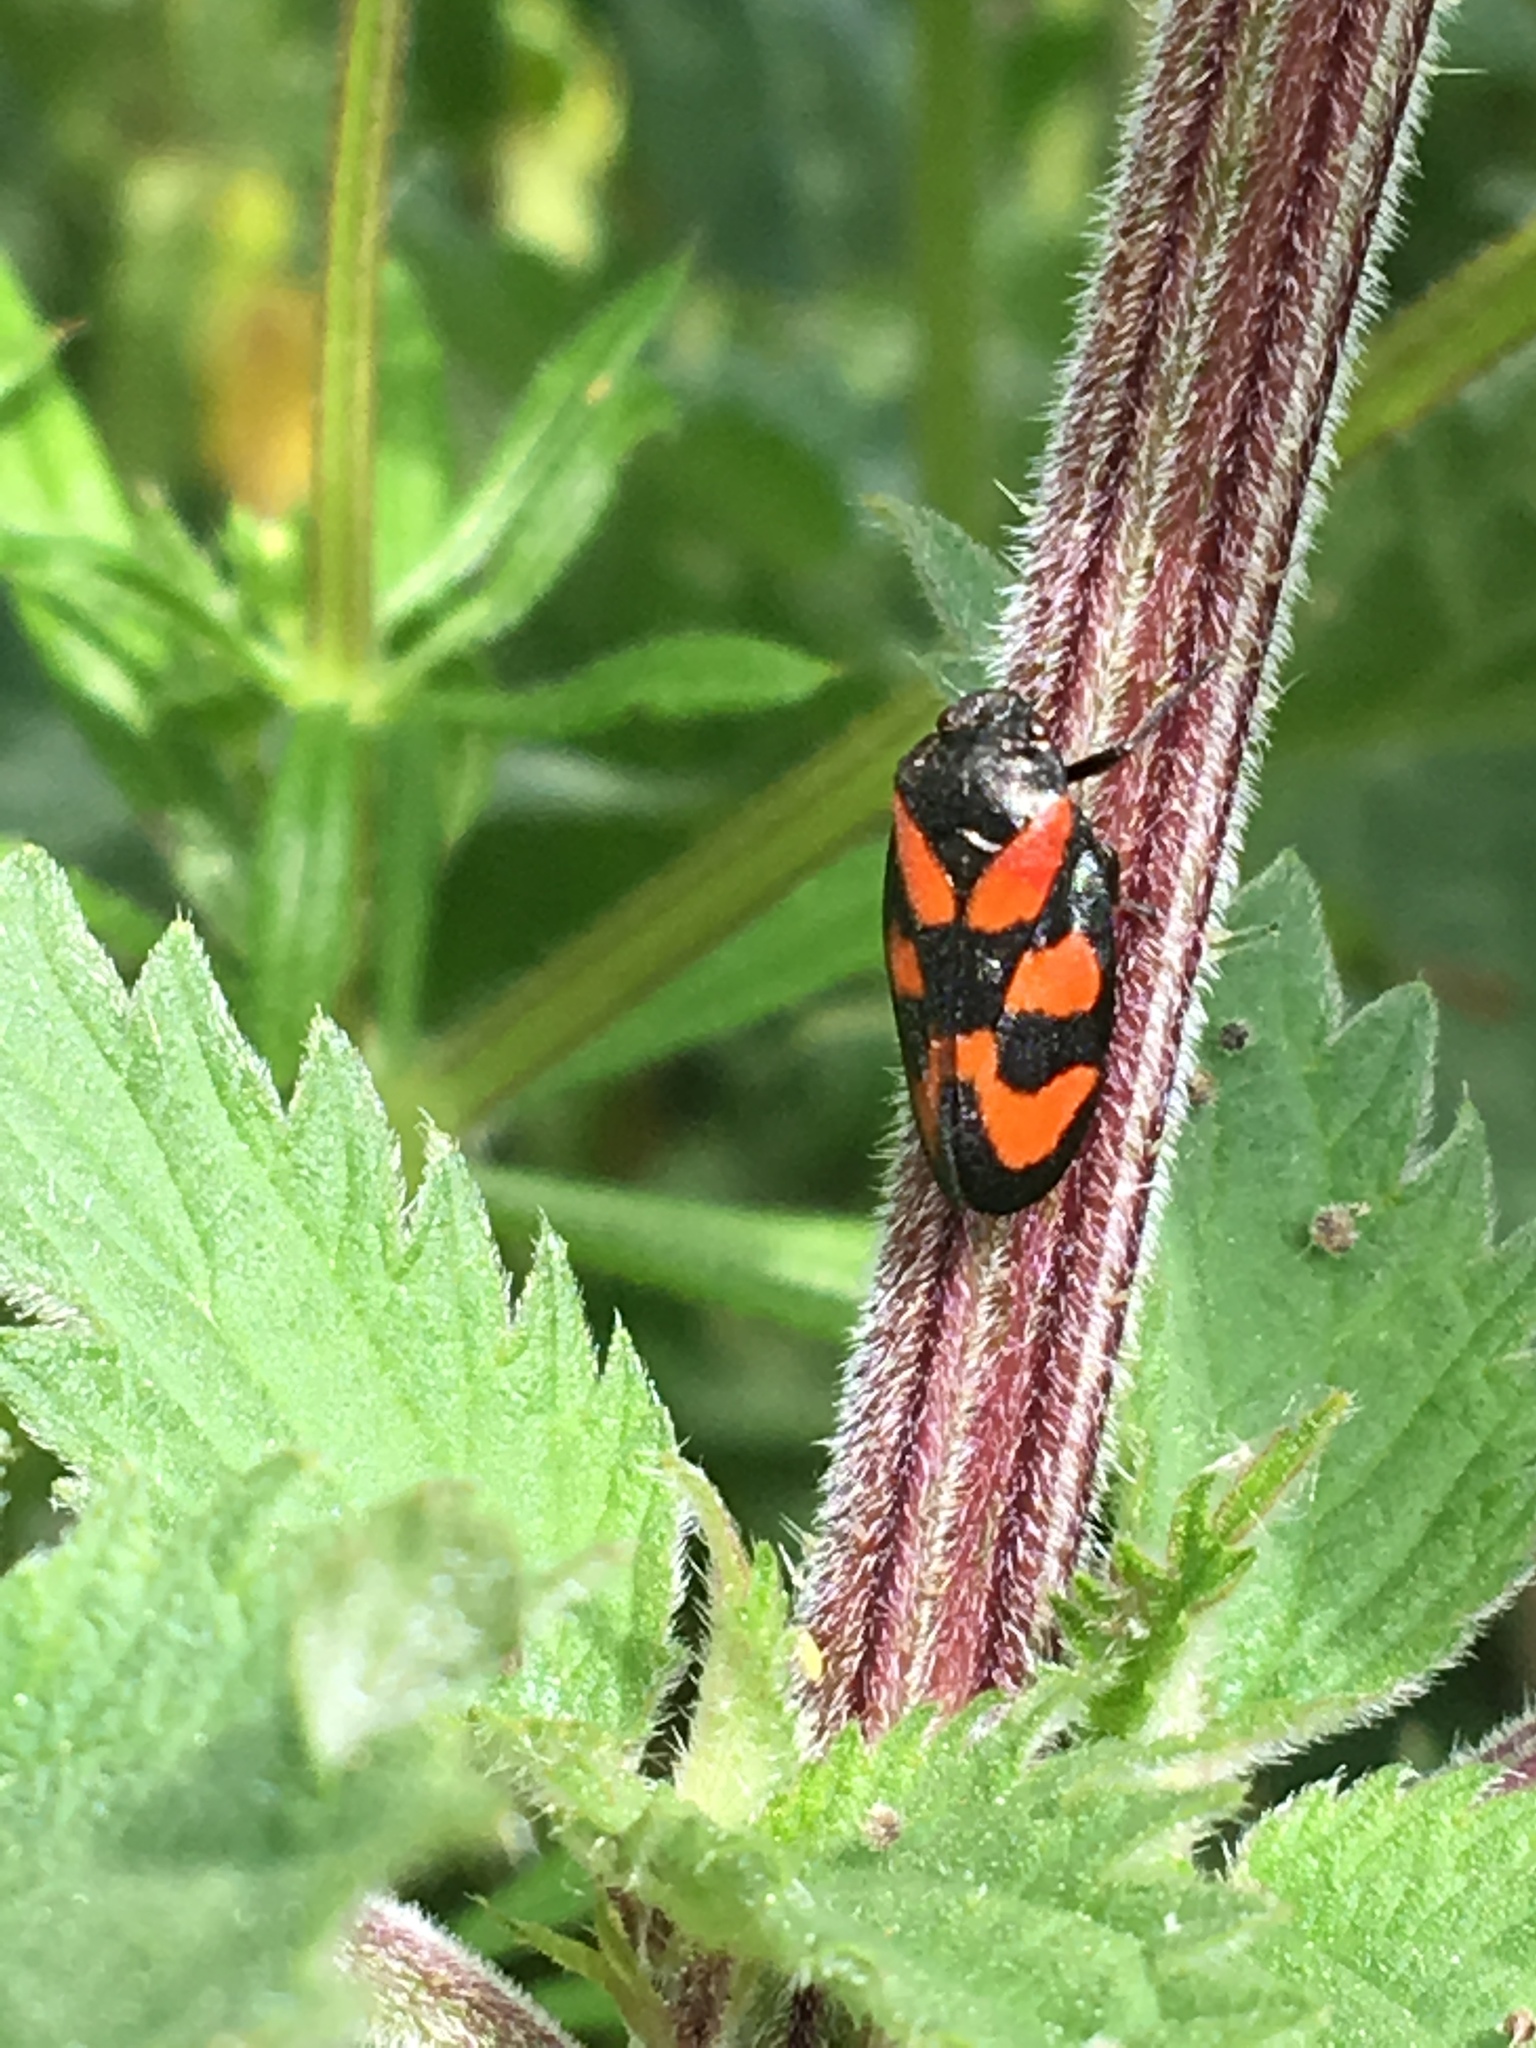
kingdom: Animalia
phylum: Arthropoda
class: Insecta
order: Hemiptera
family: Cercopidae
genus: Cercopis
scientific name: Cercopis vulnerata
